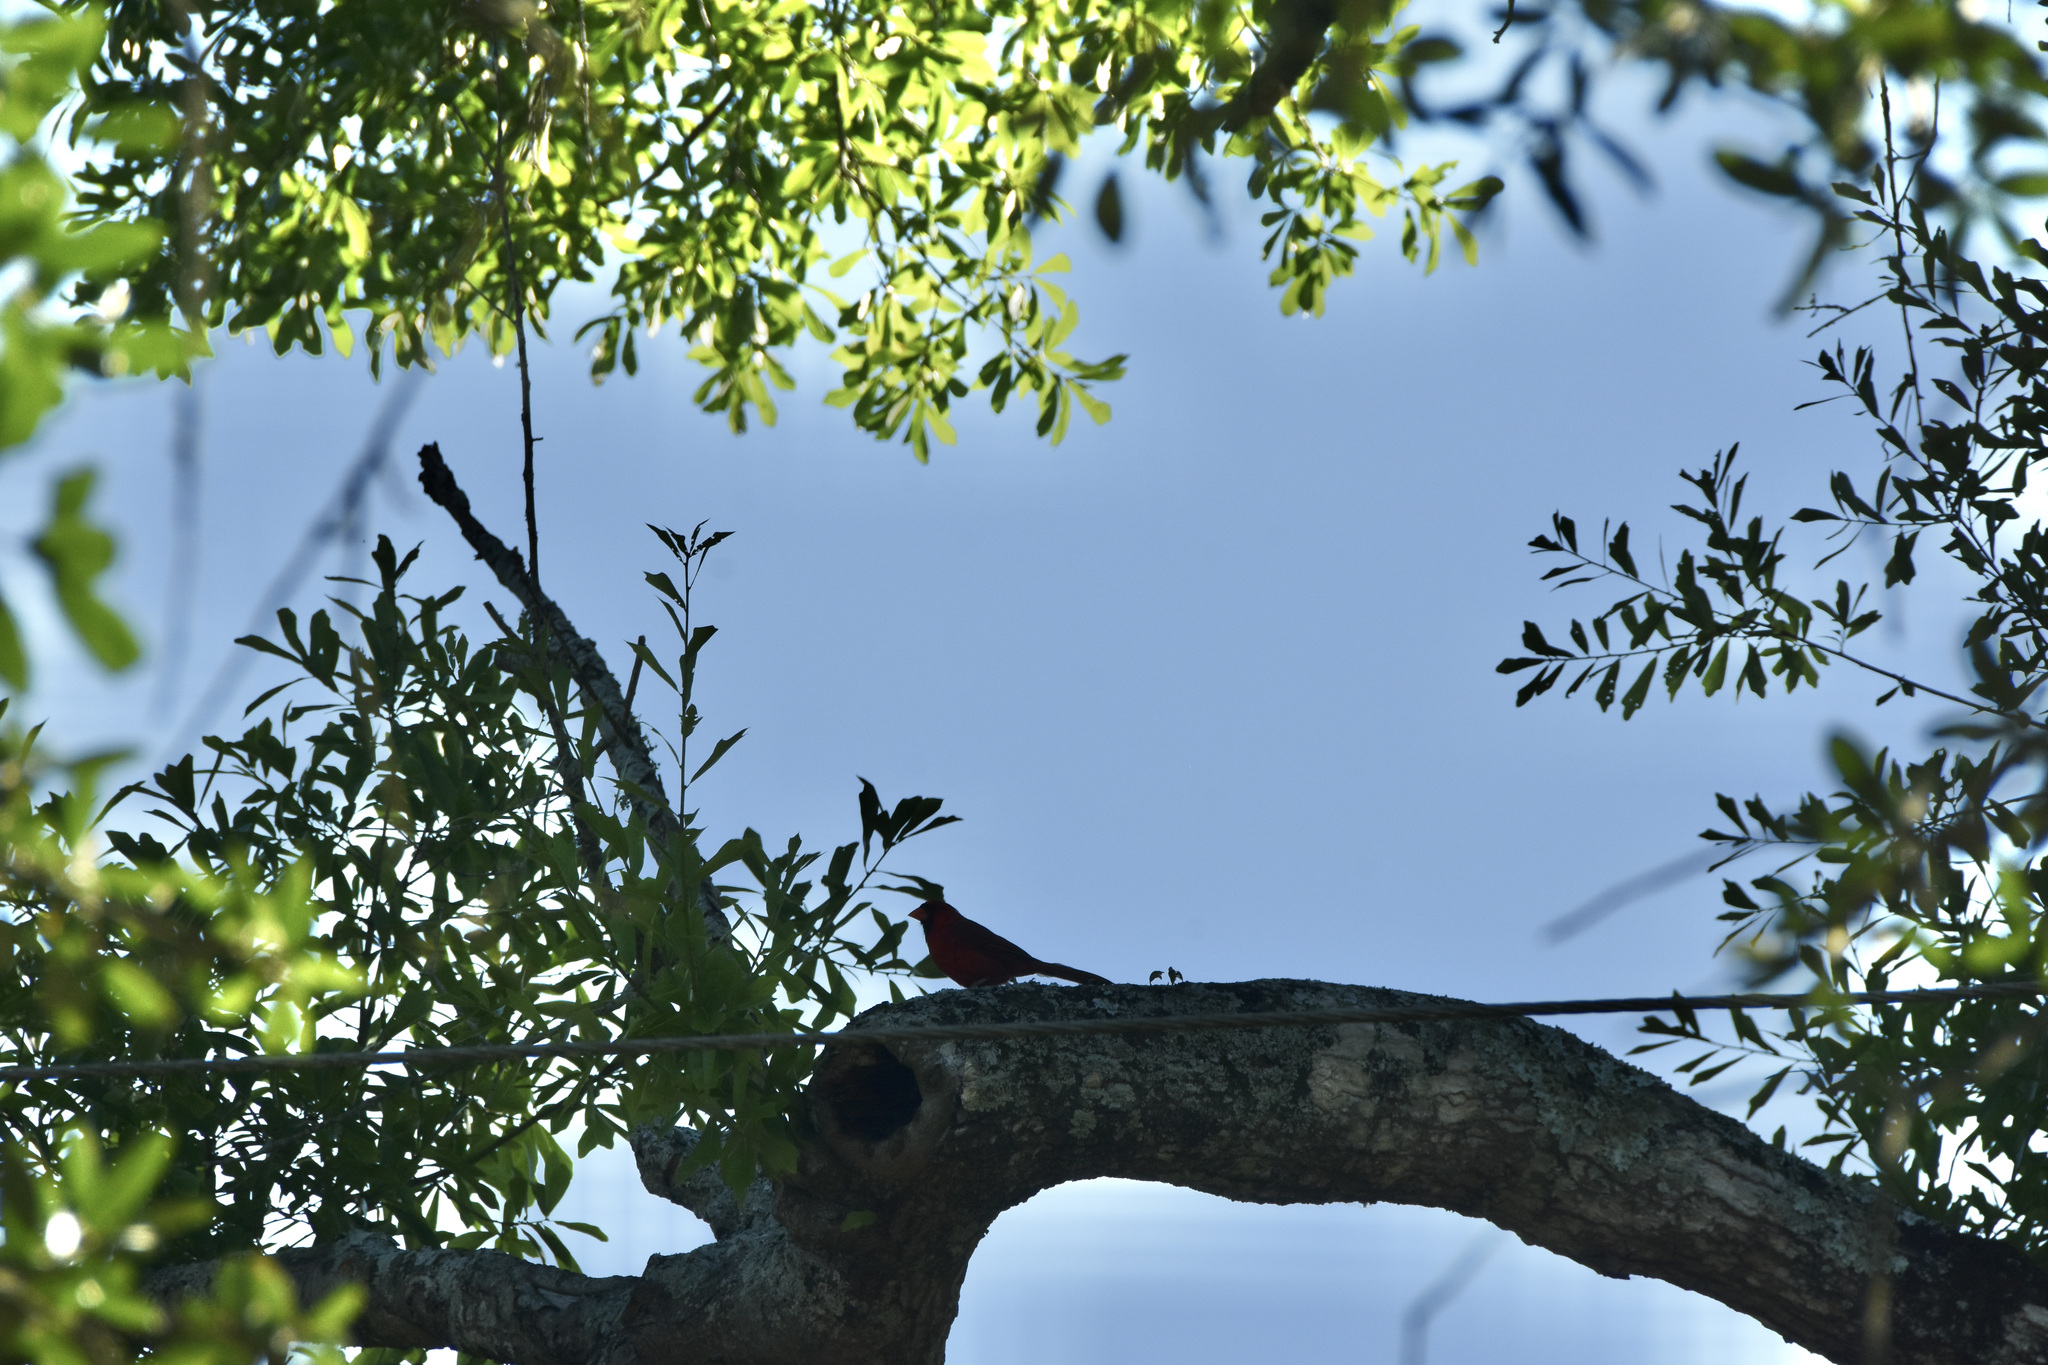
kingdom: Animalia
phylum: Chordata
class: Aves
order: Passeriformes
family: Cardinalidae
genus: Cardinalis
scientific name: Cardinalis cardinalis
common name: Northern cardinal
